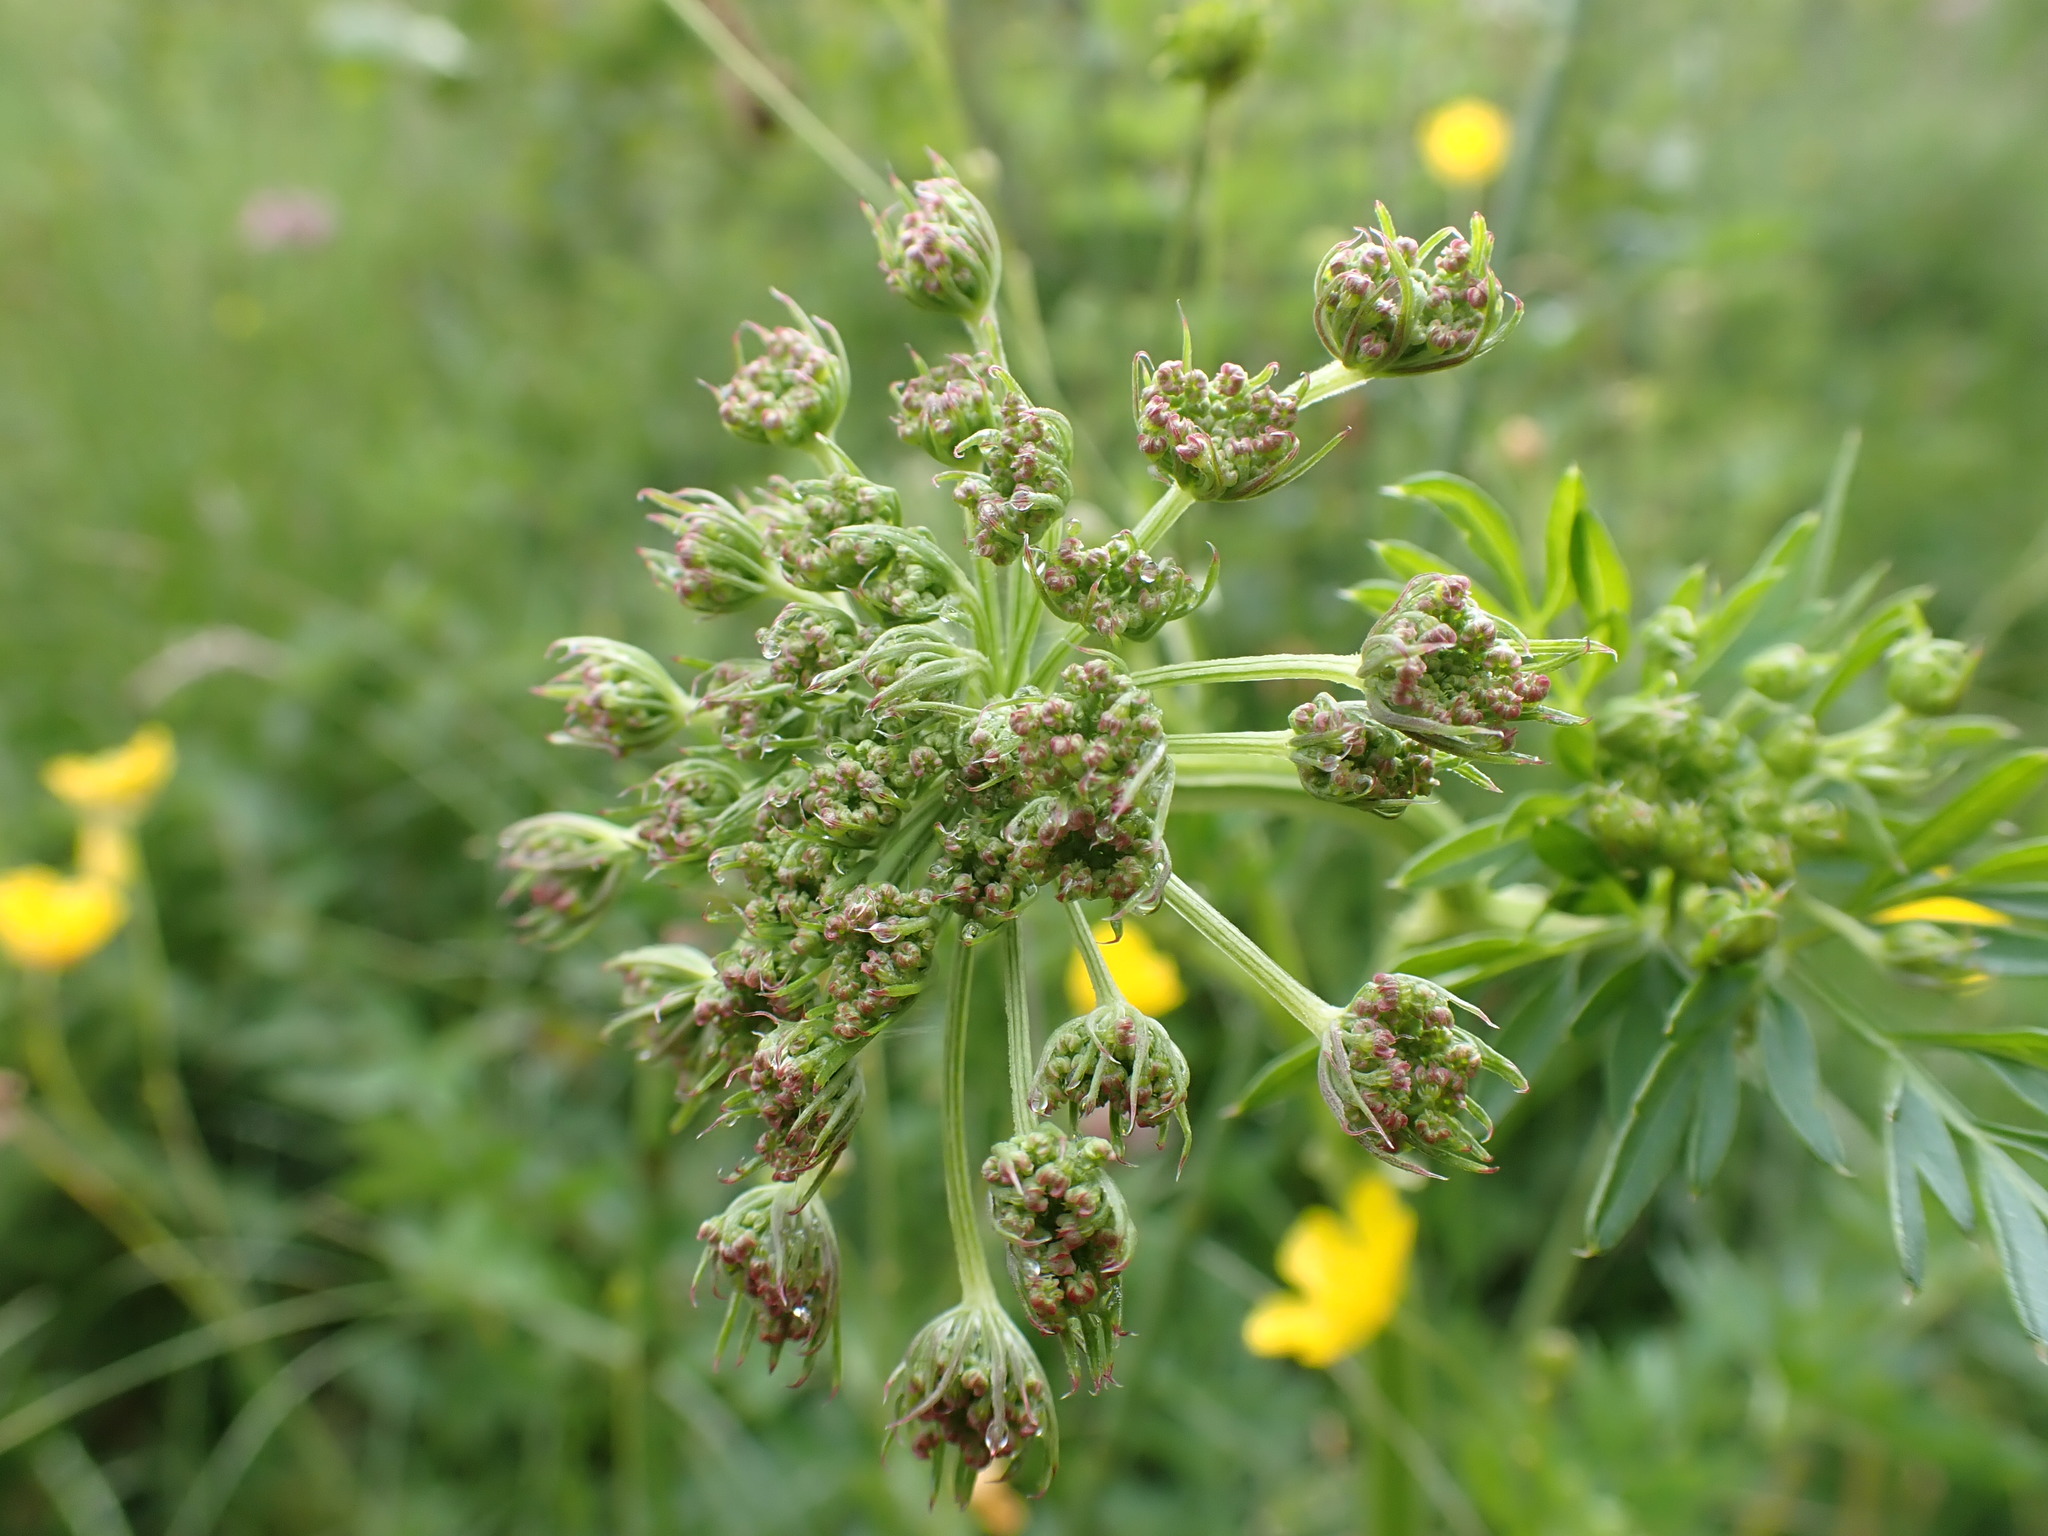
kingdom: Plantae
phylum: Tracheophyta
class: Magnoliopsida
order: Apiales
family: Apiaceae
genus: Selinum
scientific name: Selinum carvifolia
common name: Cambridge milk-parsley
